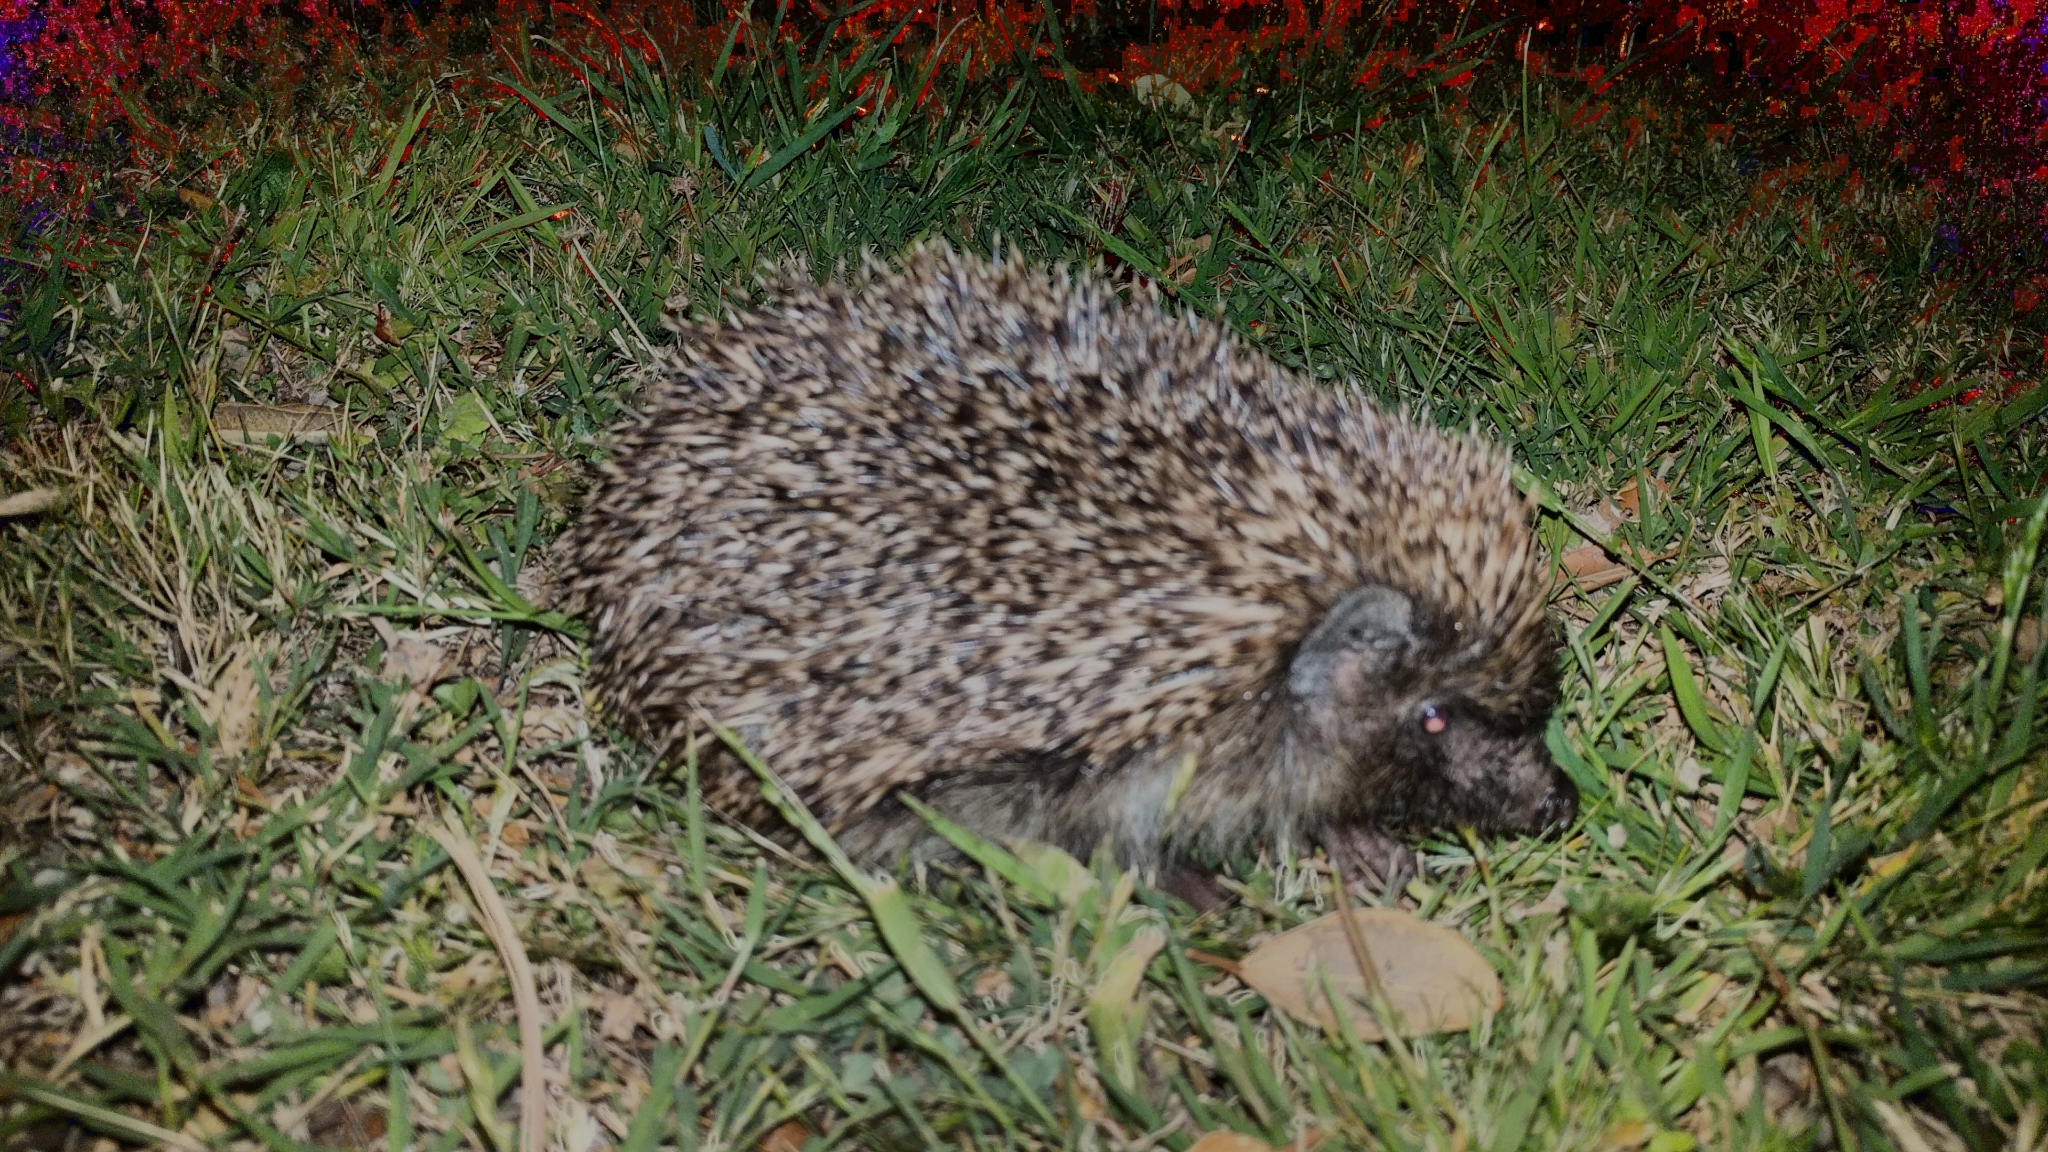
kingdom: Animalia
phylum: Chordata
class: Mammalia
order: Erinaceomorpha
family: Erinaceidae
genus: Erinaceus
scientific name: Erinaceus europaeus
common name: West european hedgehog
